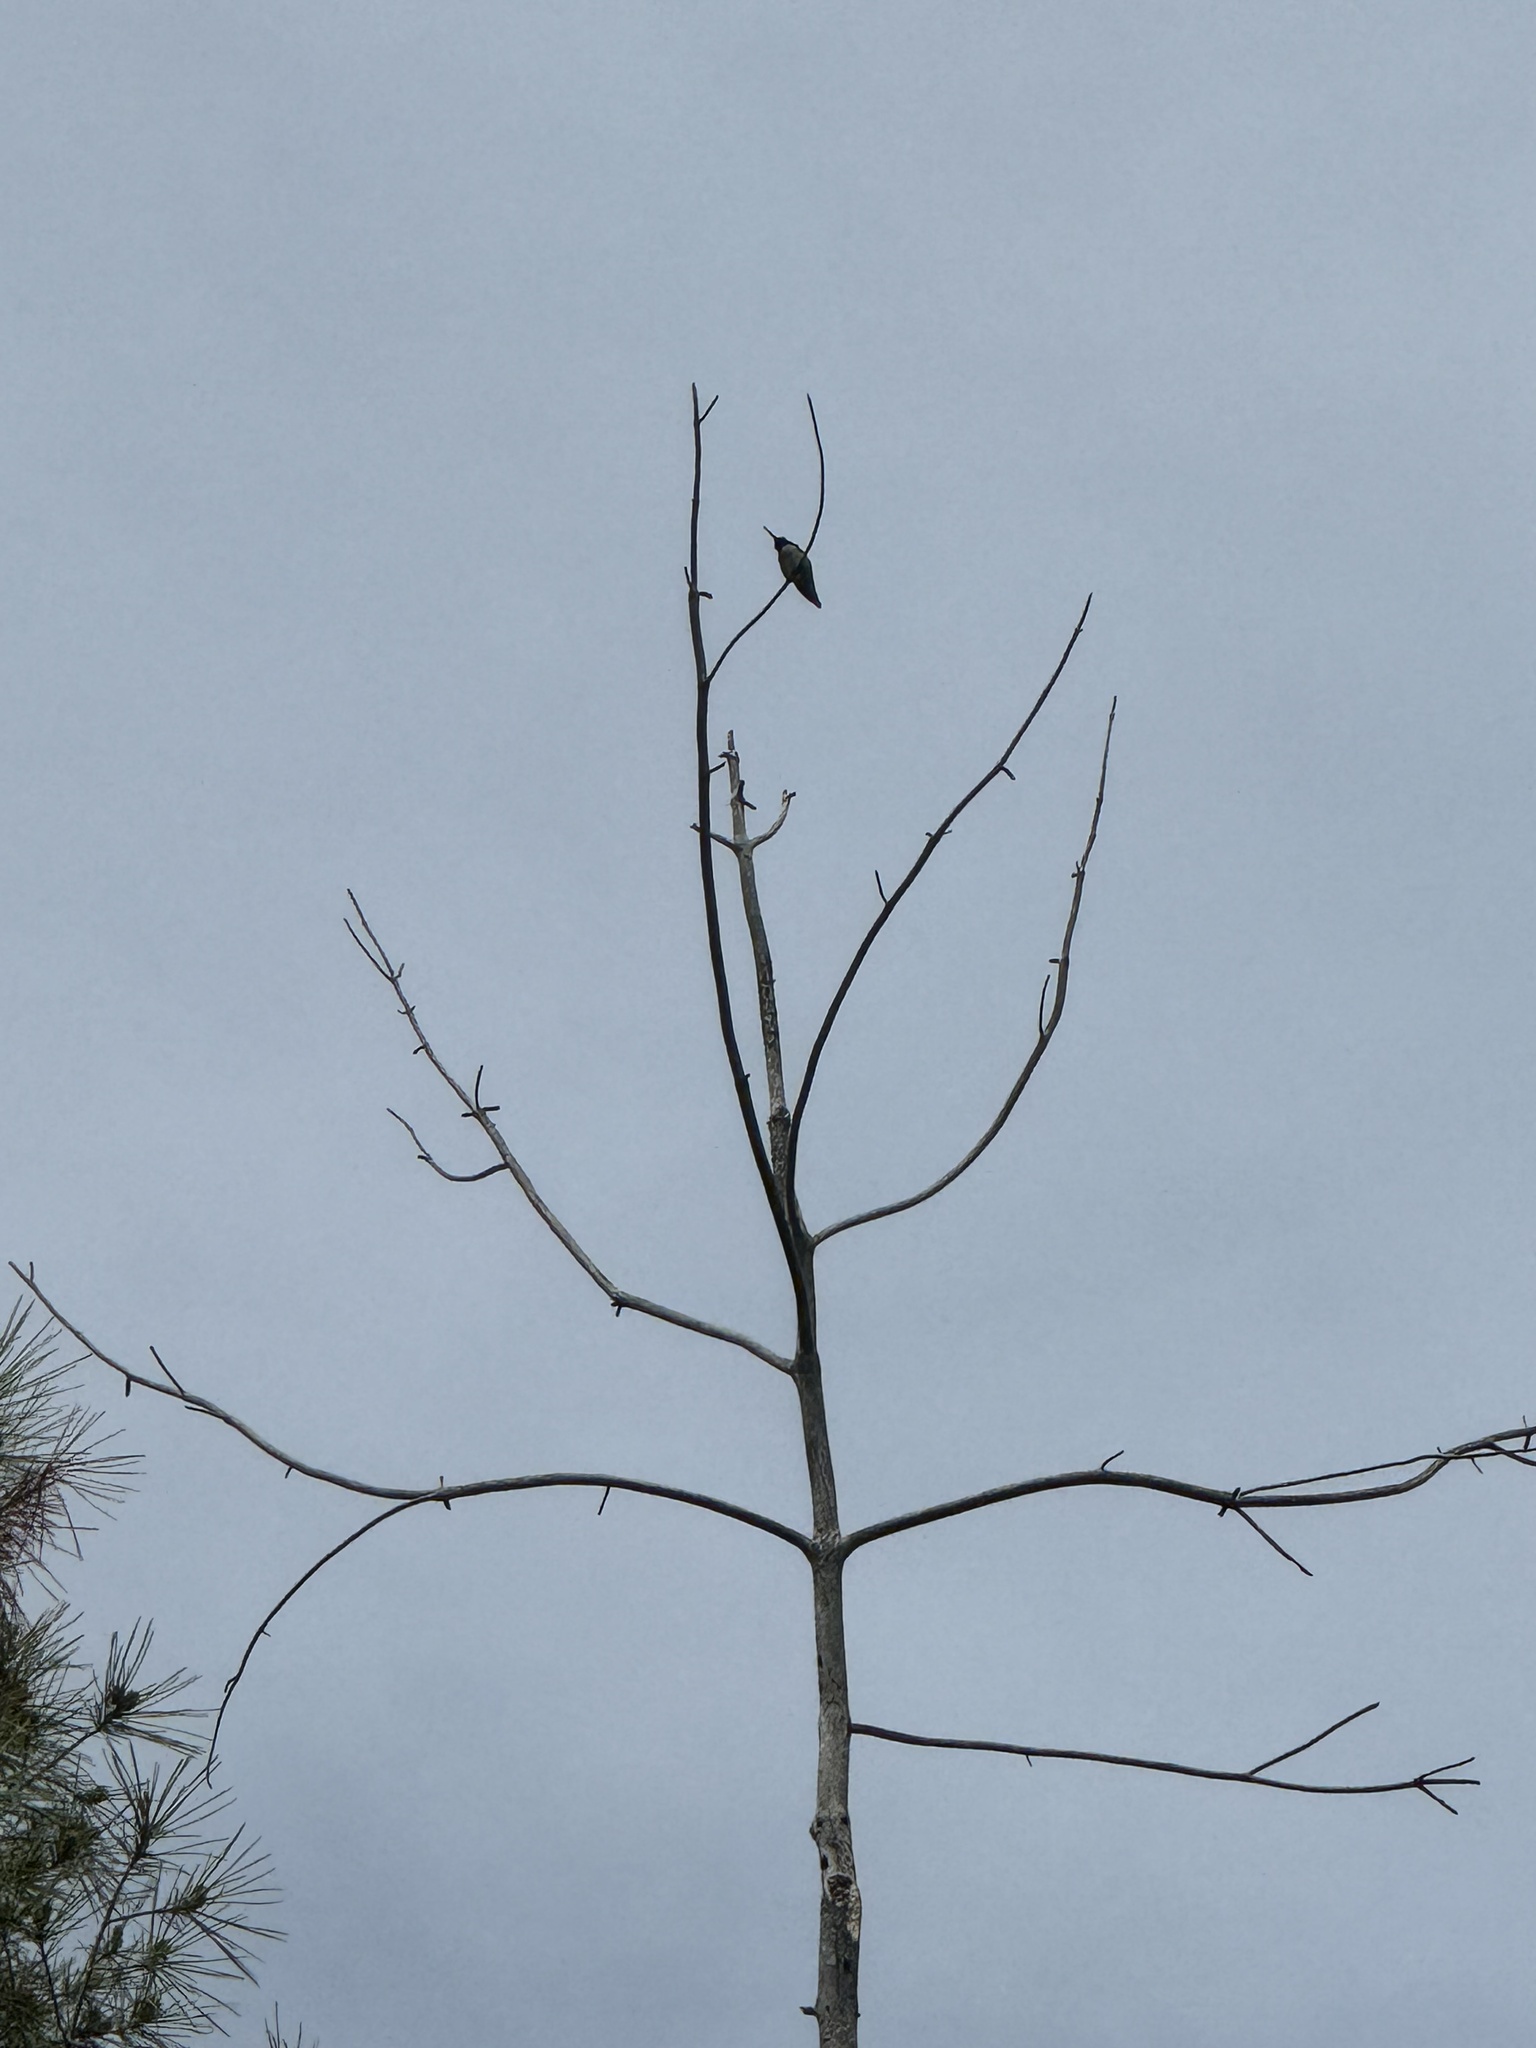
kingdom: Animalia
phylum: Chordata
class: Aves
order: Apodiformes
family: Trochilidae
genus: Calypte
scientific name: Calypte anna
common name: Anna's hummingbird
